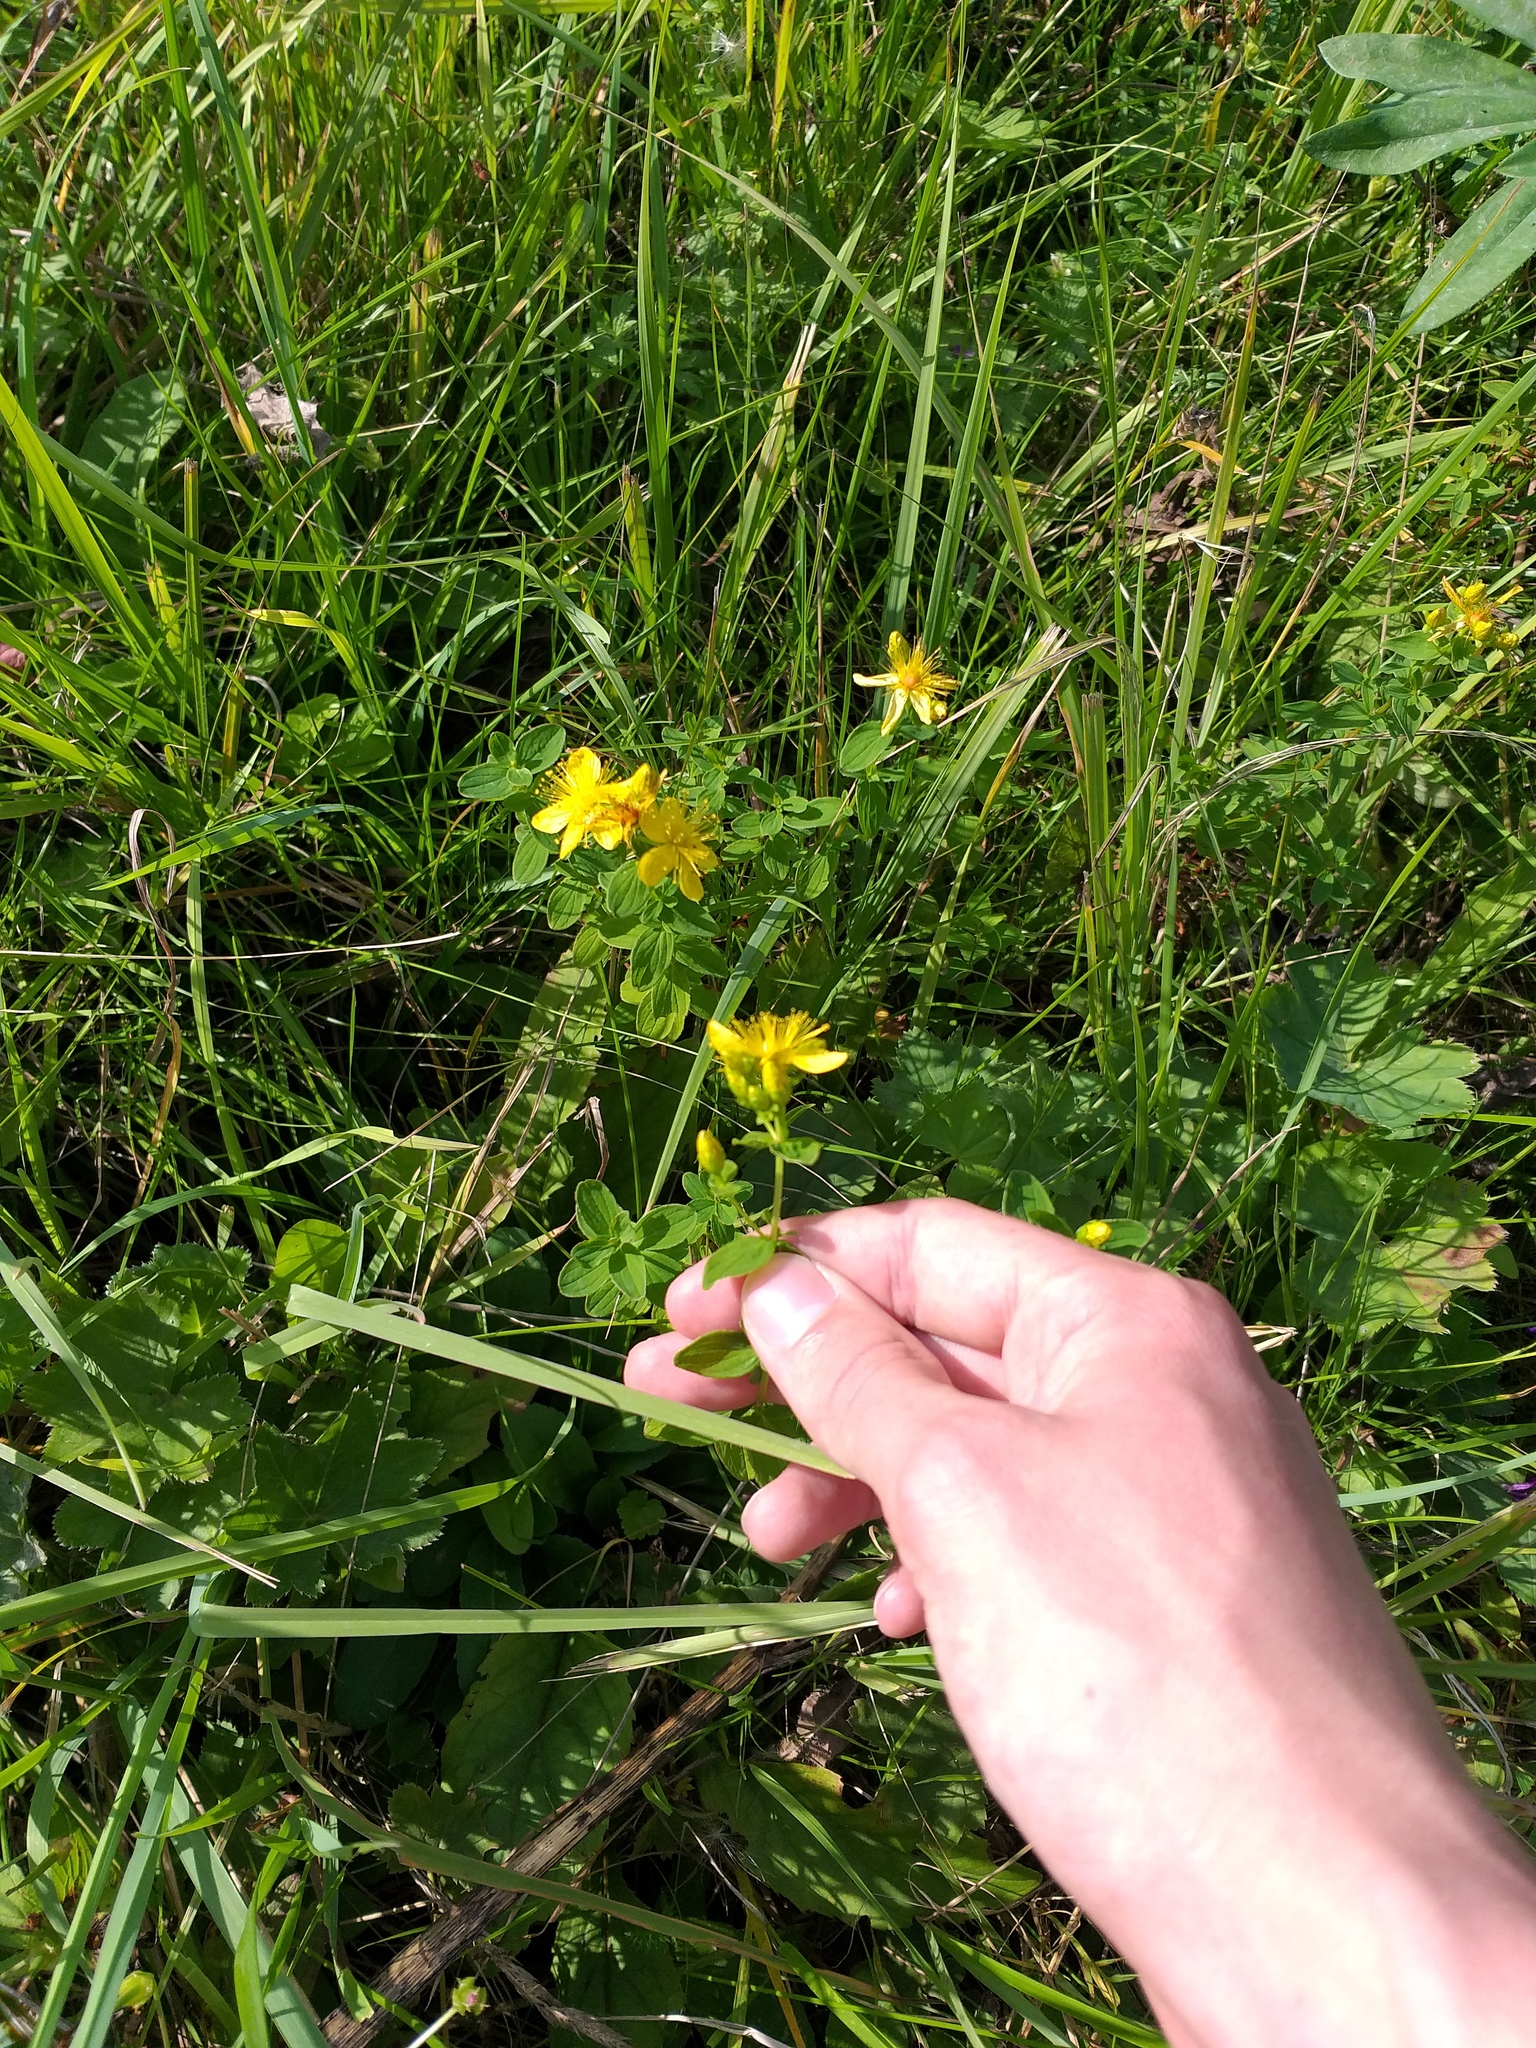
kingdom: Plantae
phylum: Tracheophyta
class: Magnoliopsida
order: Malpighiales
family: Hypericaceae
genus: Hypericum
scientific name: Hypericum maculatum
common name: Imperforate st. john's-wort
